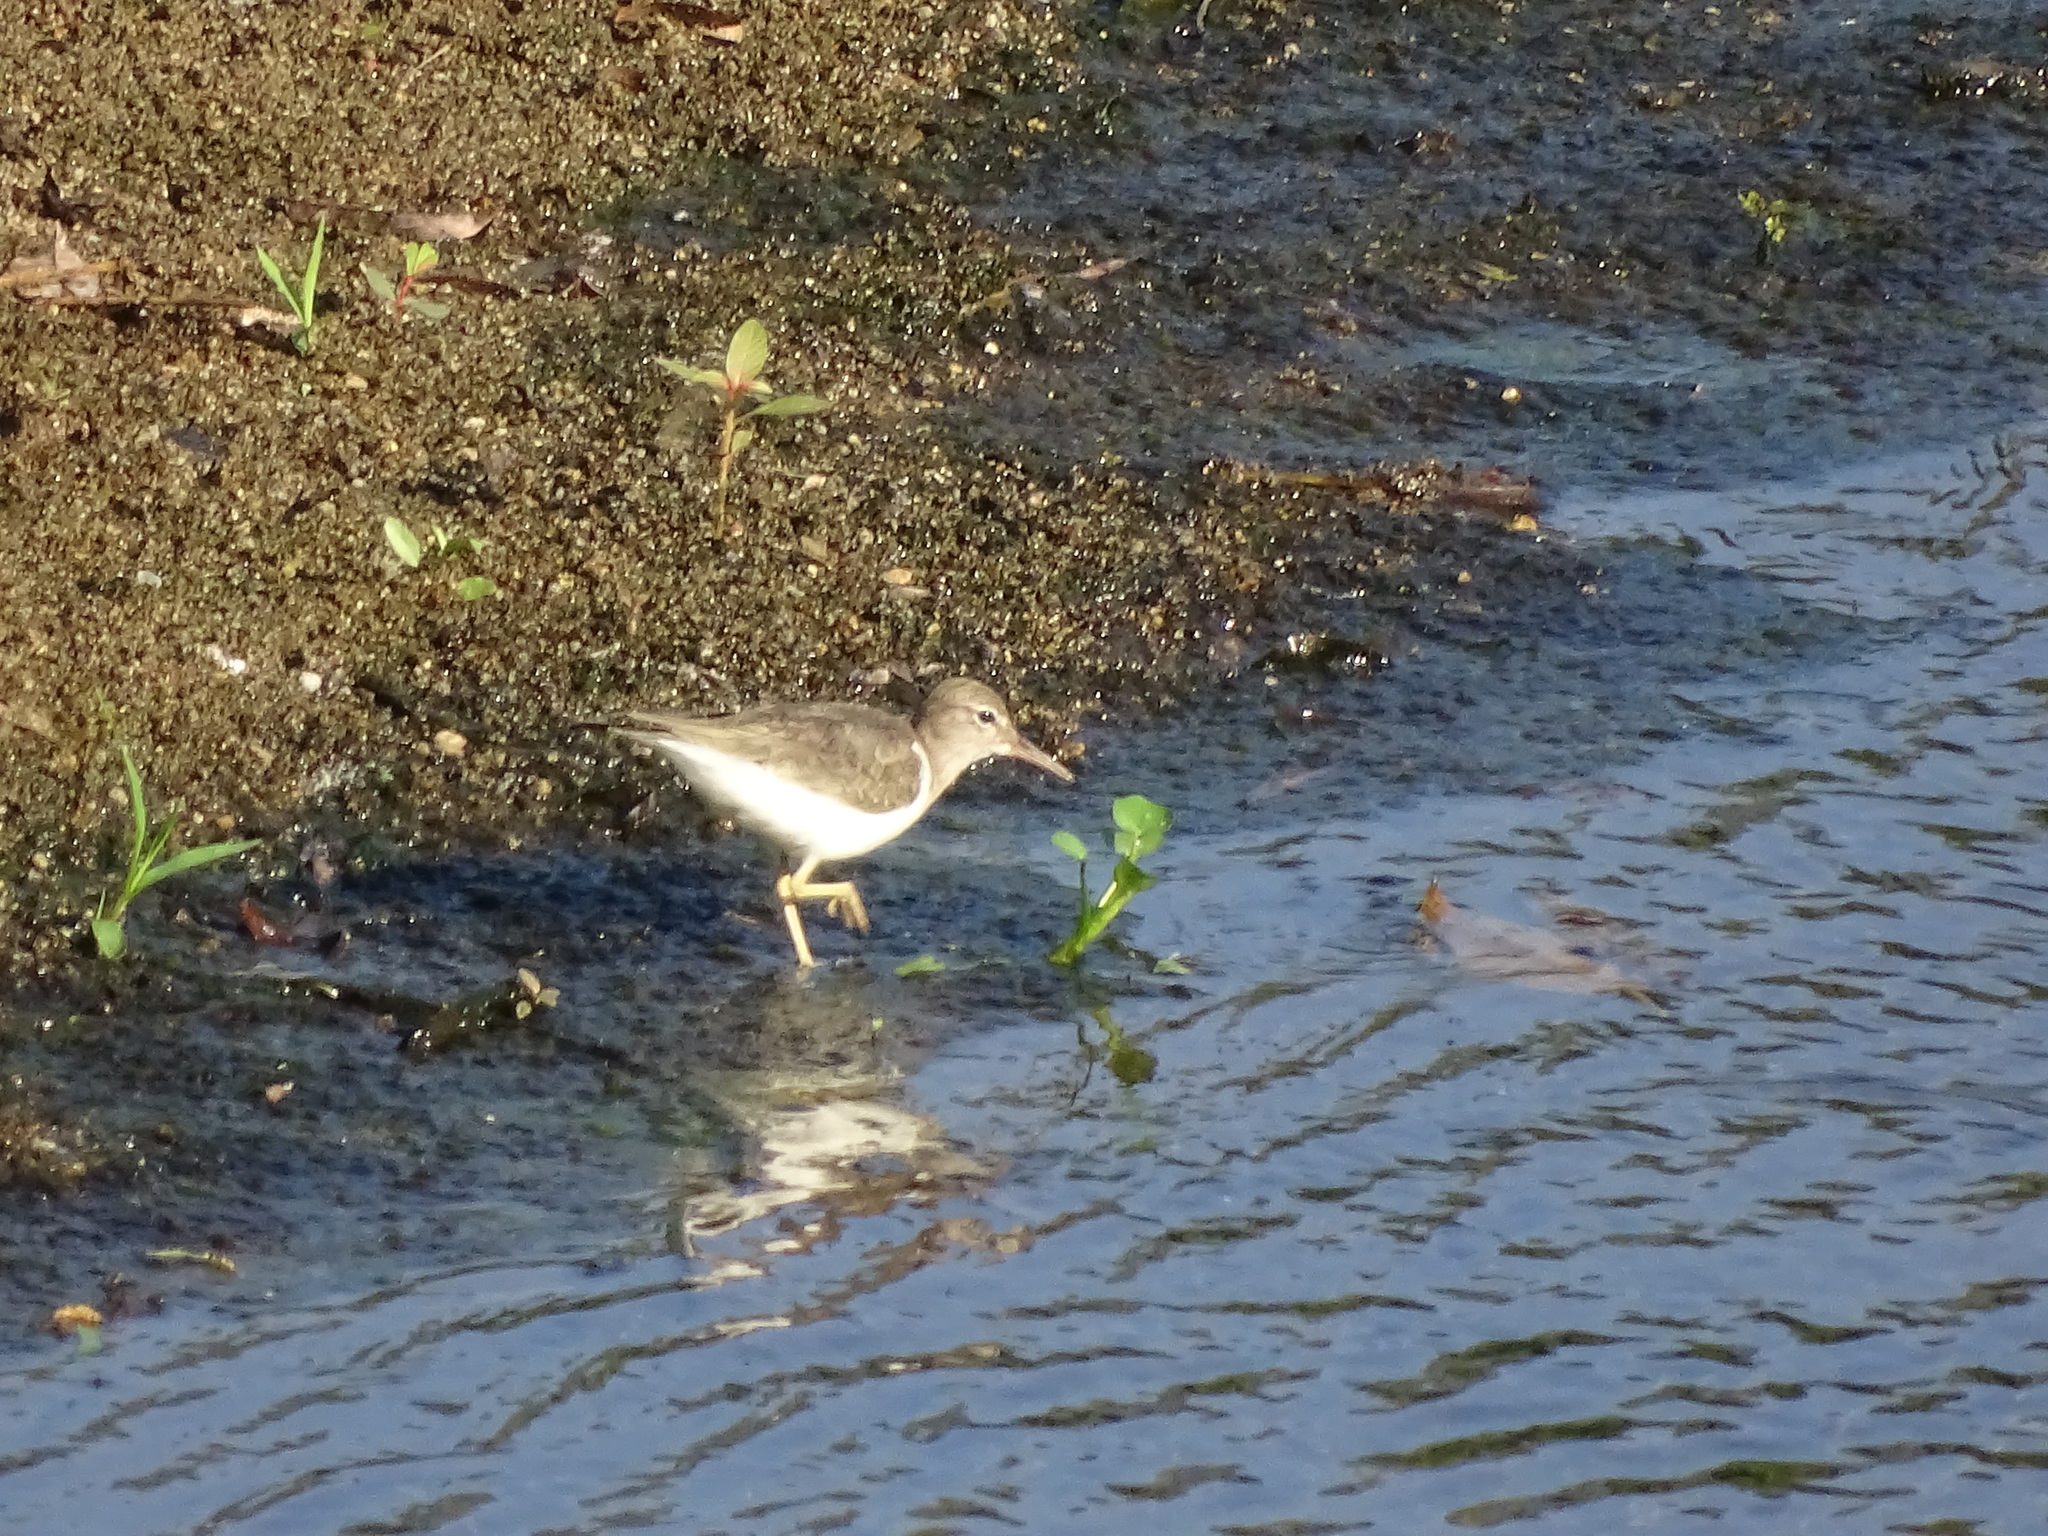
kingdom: Animalia
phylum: Chordata
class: Aves
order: Charadriiformes
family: Scolopacidae
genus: Actitis
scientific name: Actitis macularius
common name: Spotted sandpiper
